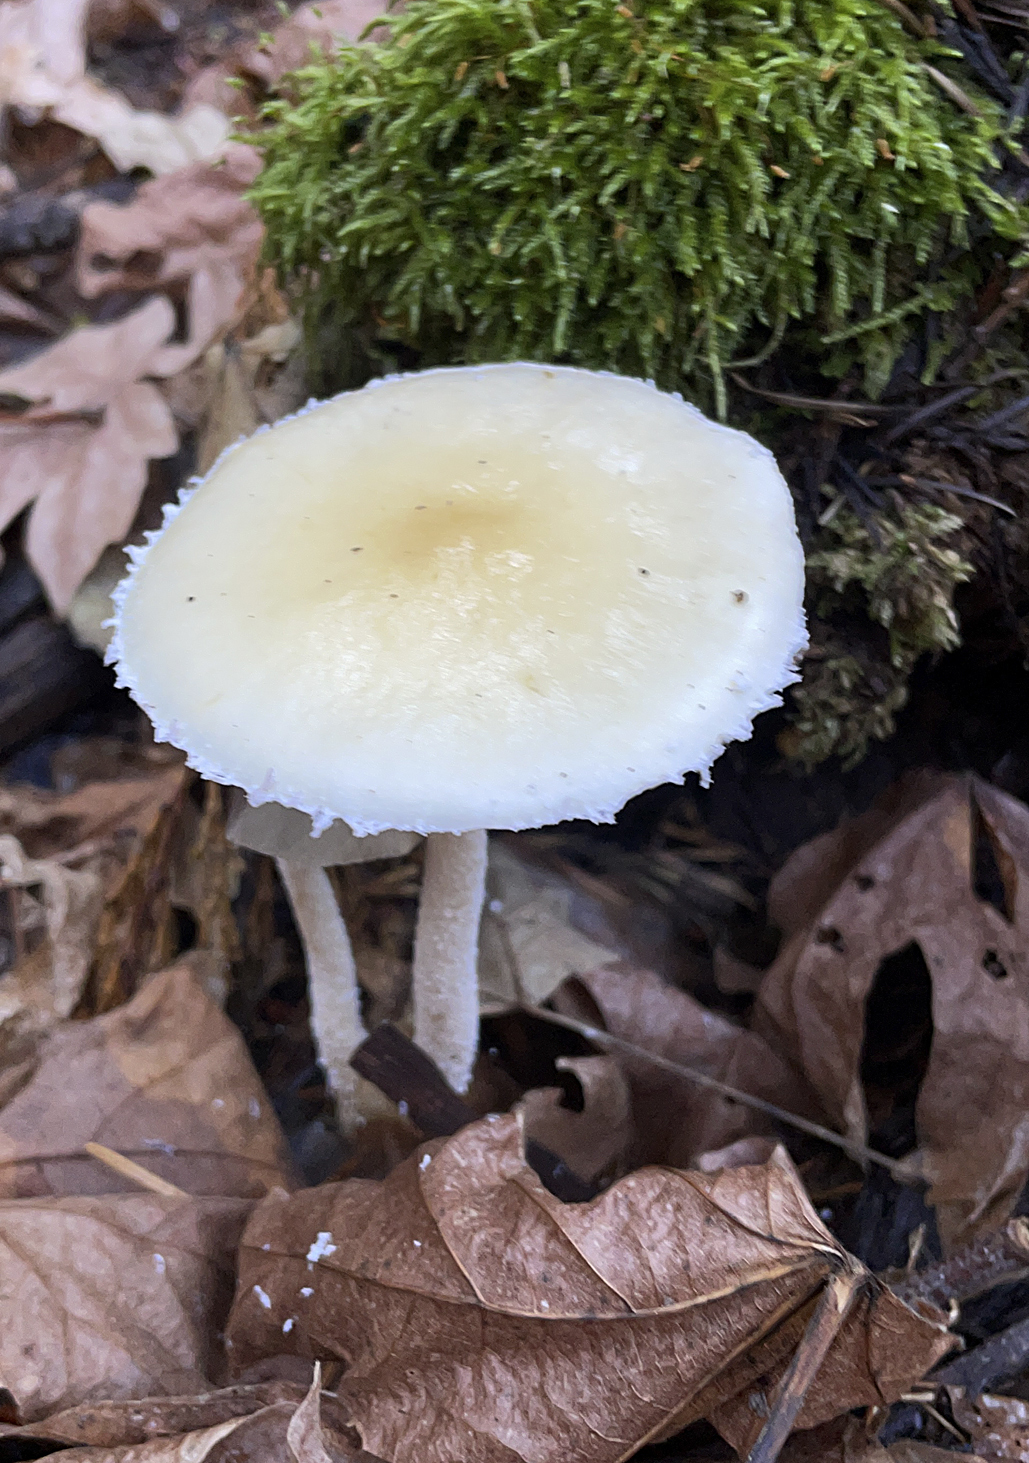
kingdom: Fungi
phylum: Basidiomycota
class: Agaricomycetes
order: Agaricales
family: Strophariaceae
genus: Stropharia
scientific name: Stropharia ambigua
